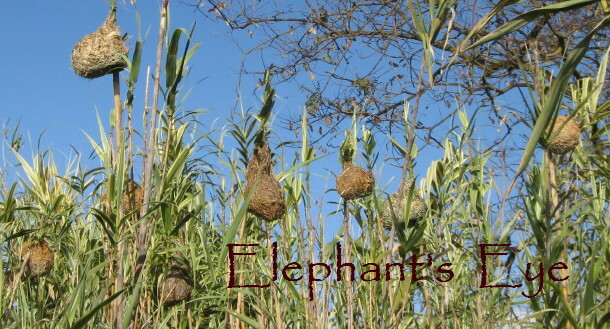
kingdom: Animalia
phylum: Chordata
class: Aves
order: Passeriformes
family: Ploceidae
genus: Ploceus
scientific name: Ploceus velatus
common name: Southern masked weaver
